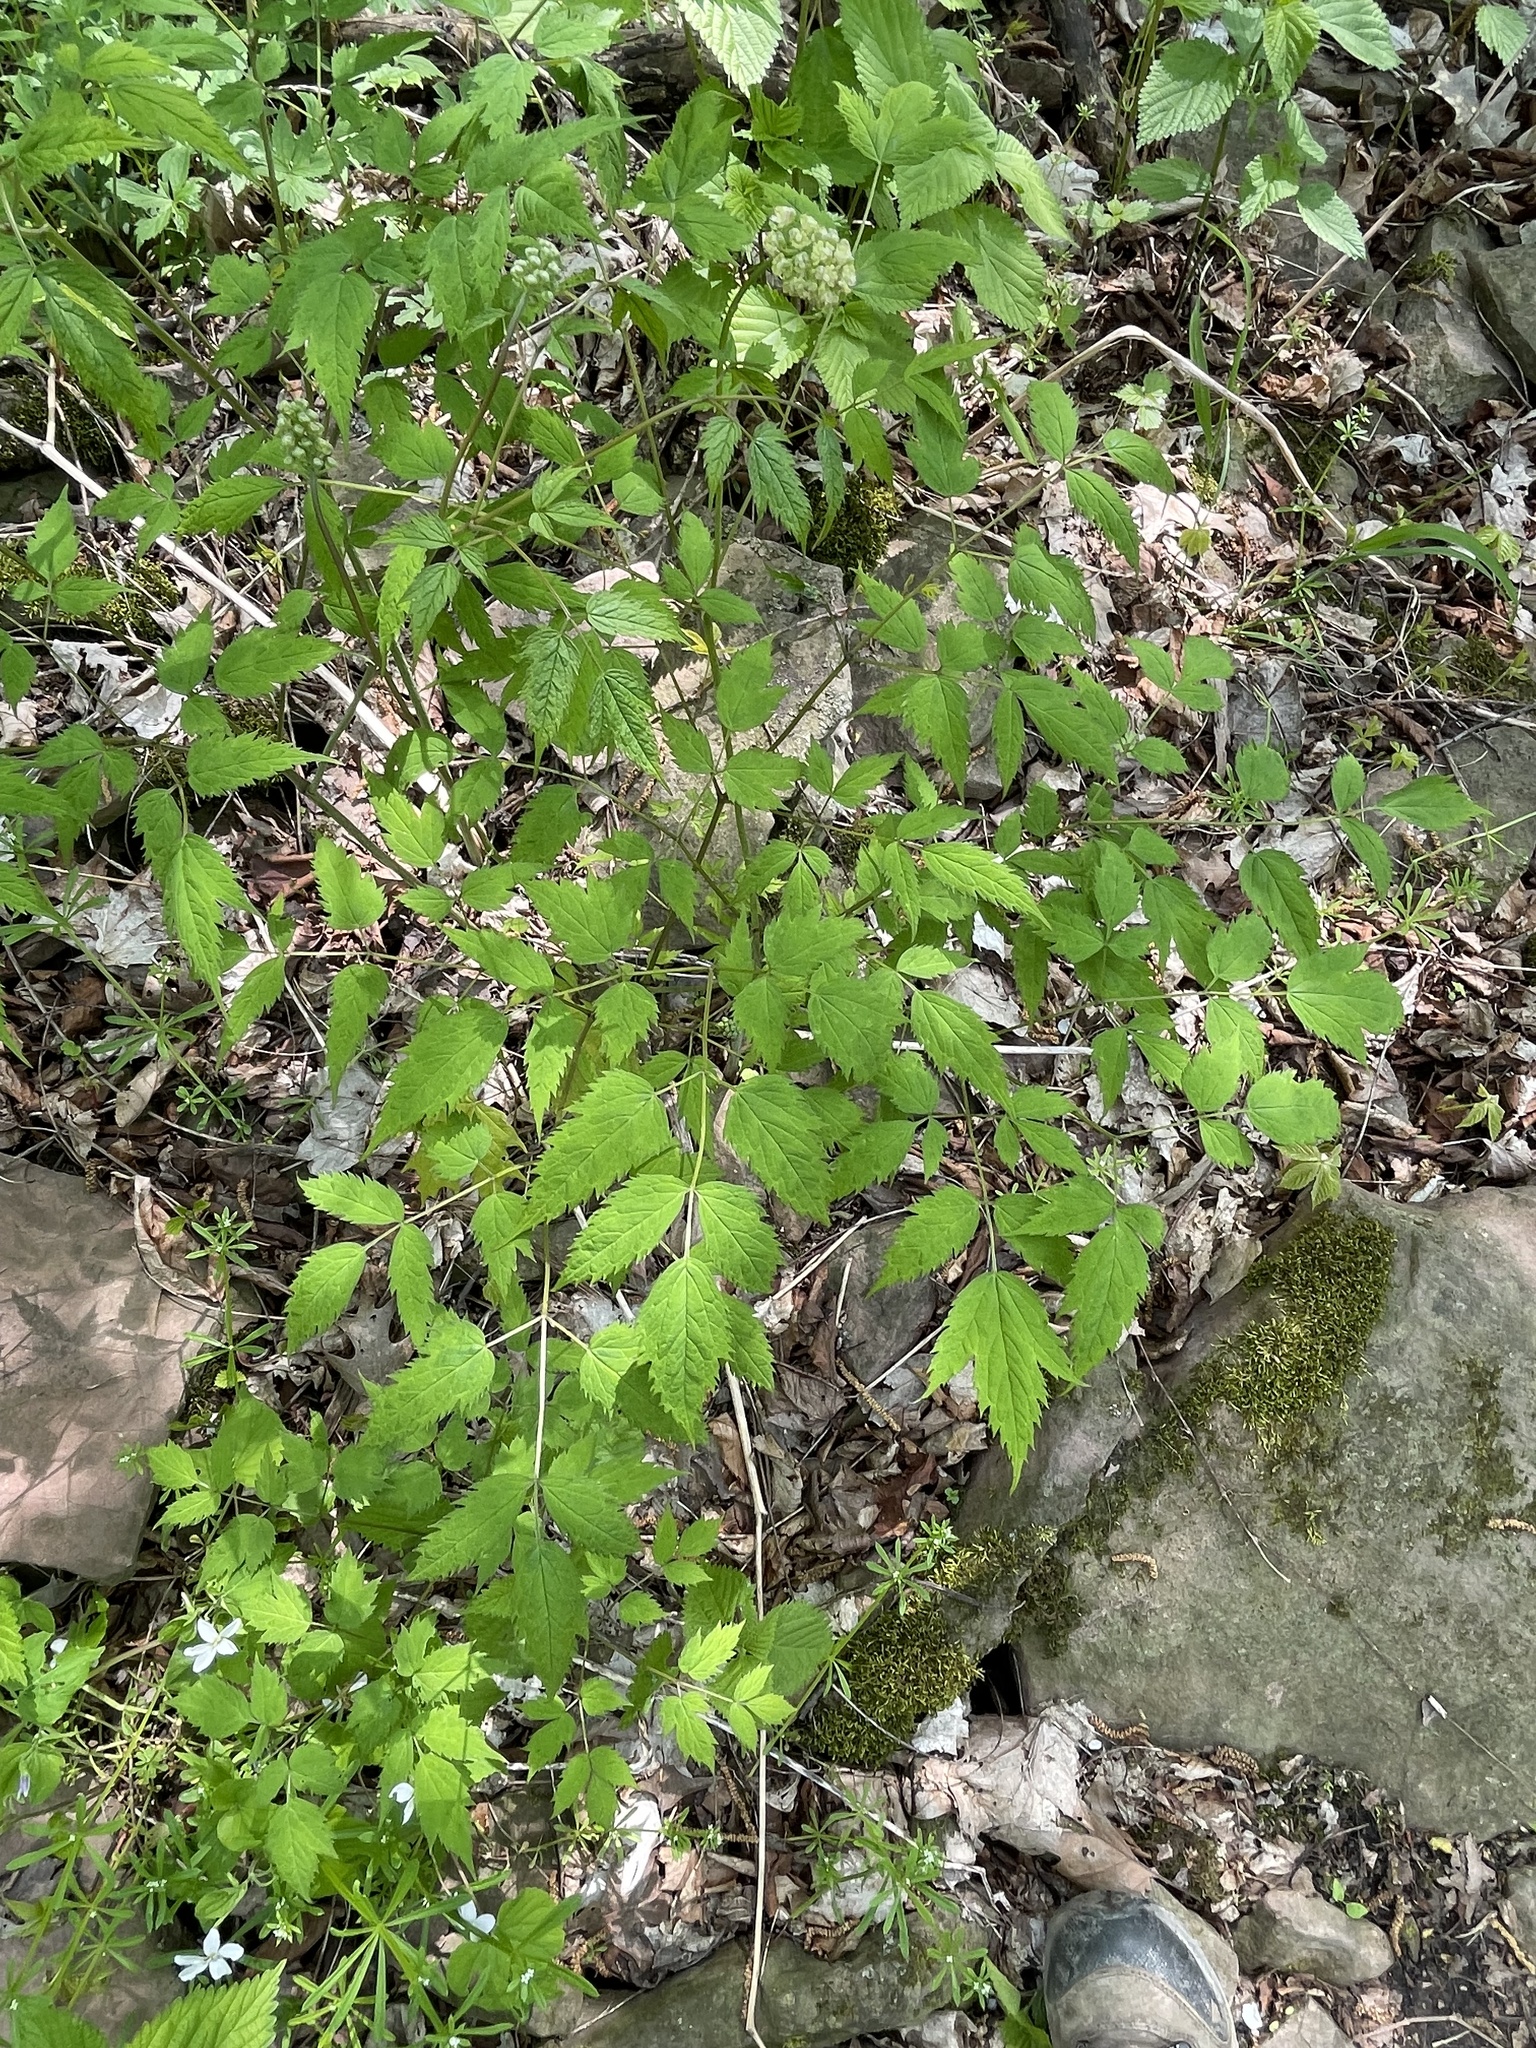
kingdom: Plantae
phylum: Tracheophyta
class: Magnoliopsida
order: Ranunculales
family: Ranunculaceae
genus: Actaea
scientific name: Actaea pachypoda
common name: Doll's-eyes
